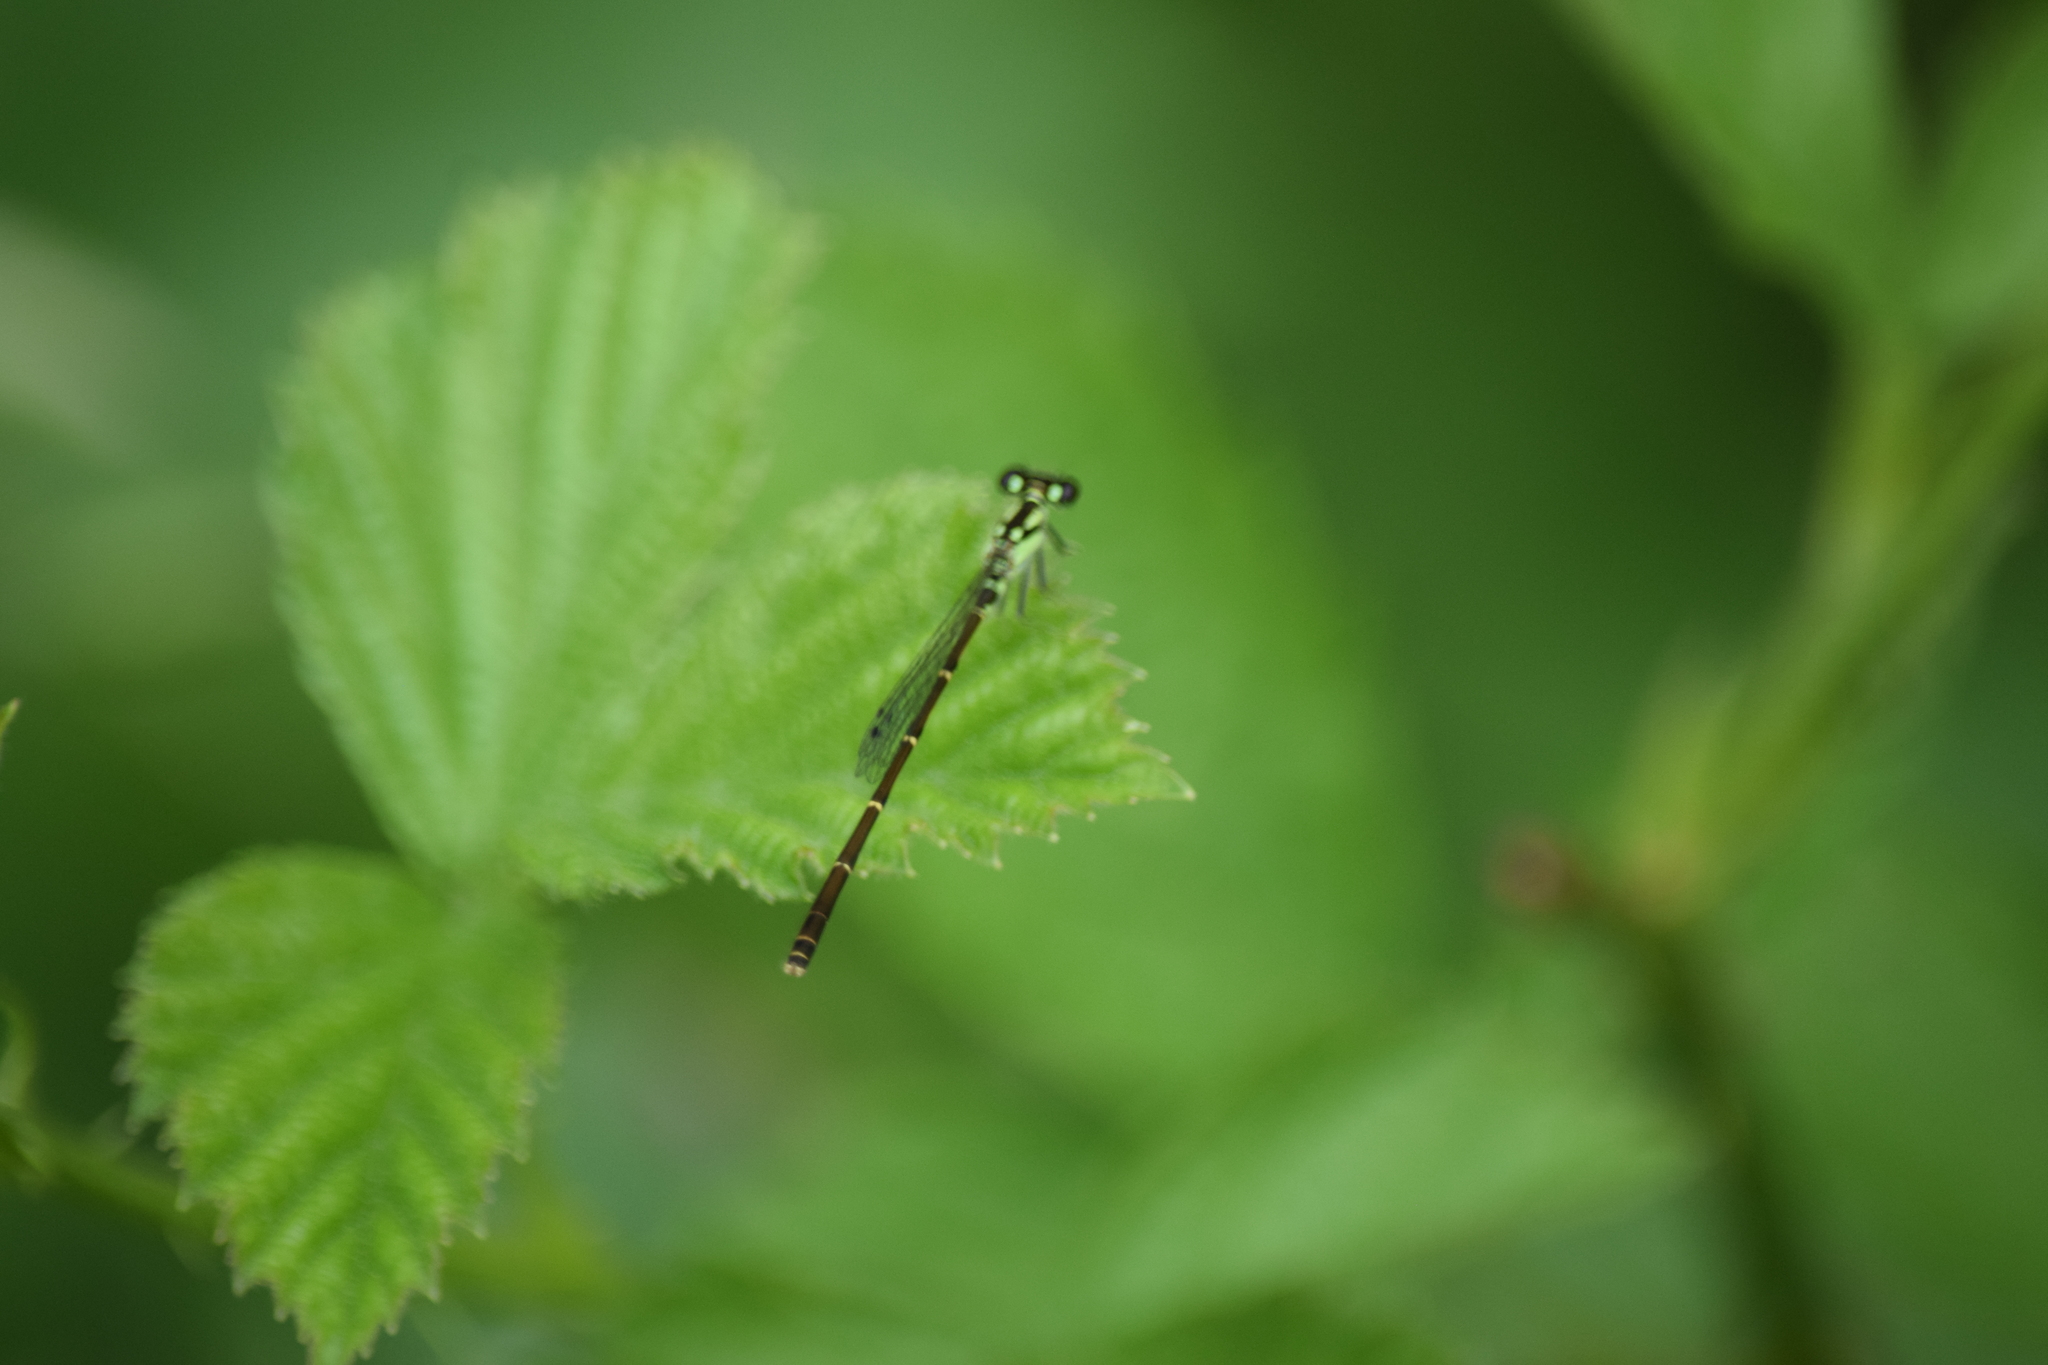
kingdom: Animalia
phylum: Arthropoda
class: Insecta
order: Odonata
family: Coenagrionidae
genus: Ischnura
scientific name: Ischnura posita
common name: Fragile forktail
